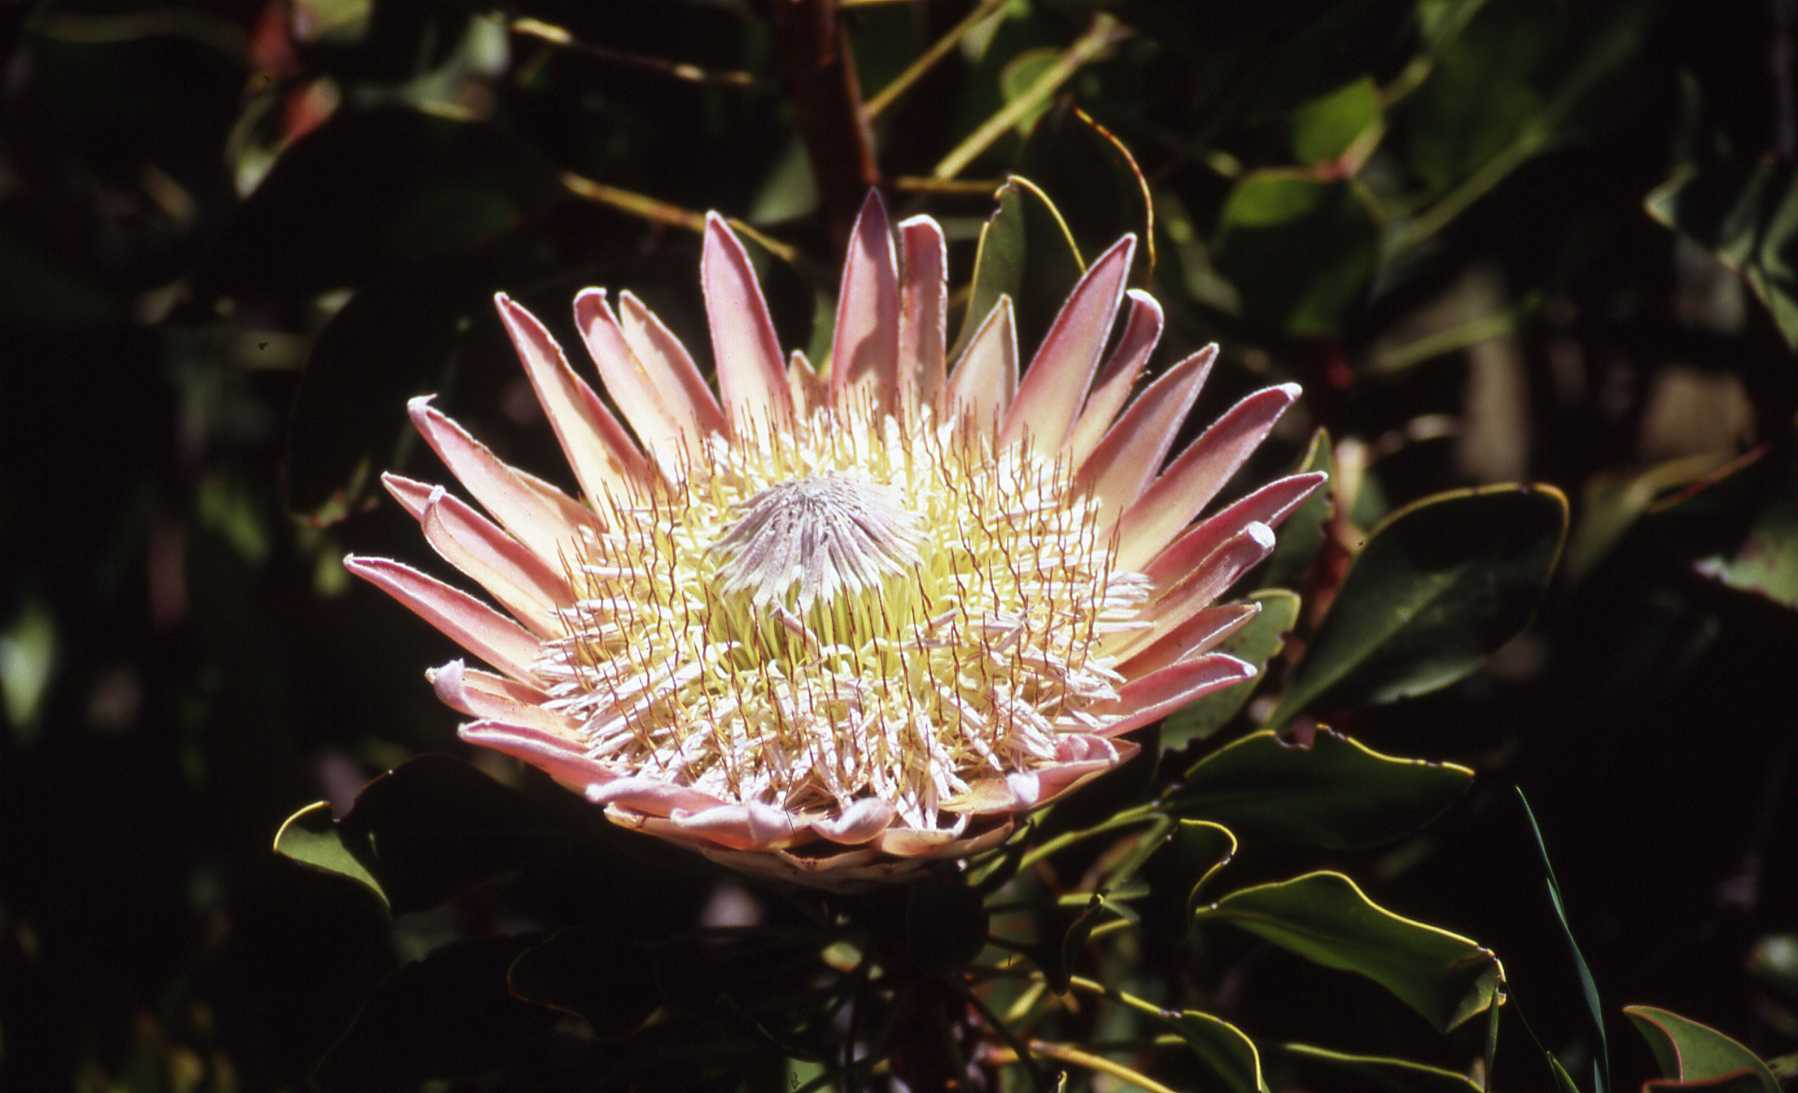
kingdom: Plantae
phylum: Tracheophyta
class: Magnoliopsida
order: Proteales
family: Proteaceae
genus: Protea
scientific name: Protea cynaroides
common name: King protea
